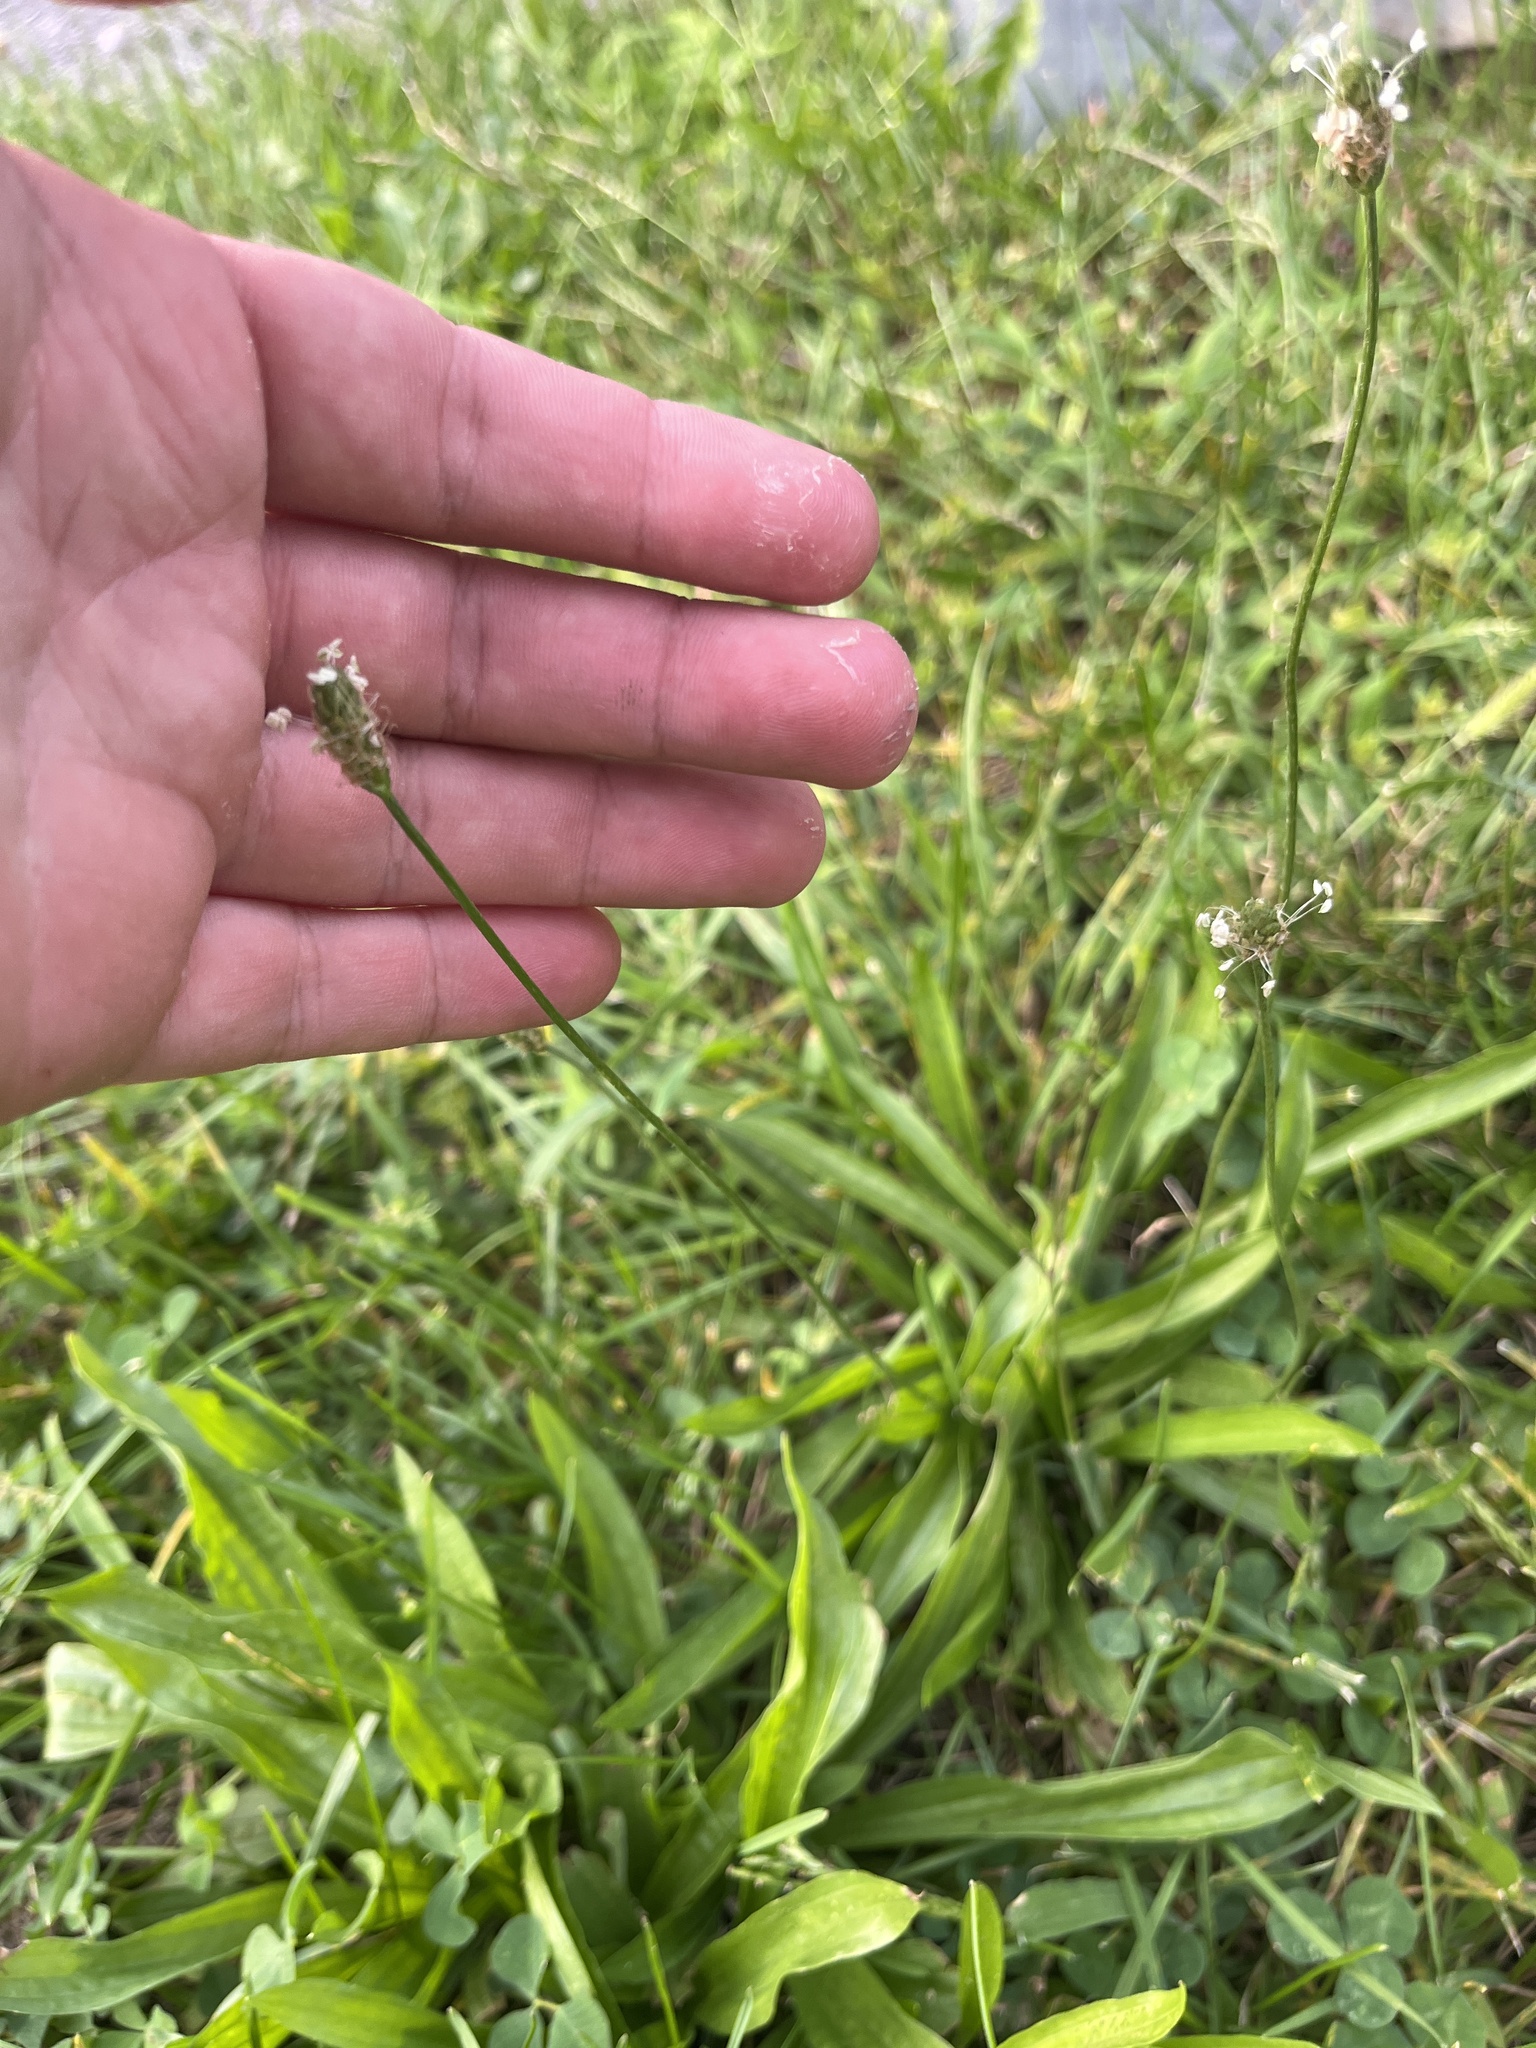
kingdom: Plantae
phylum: Tracheophyta
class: Magnoliopsida
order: Lamiales
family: Plantaginaceae
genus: Plantago
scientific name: Plantago lanceolata
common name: Ribwort plantain
